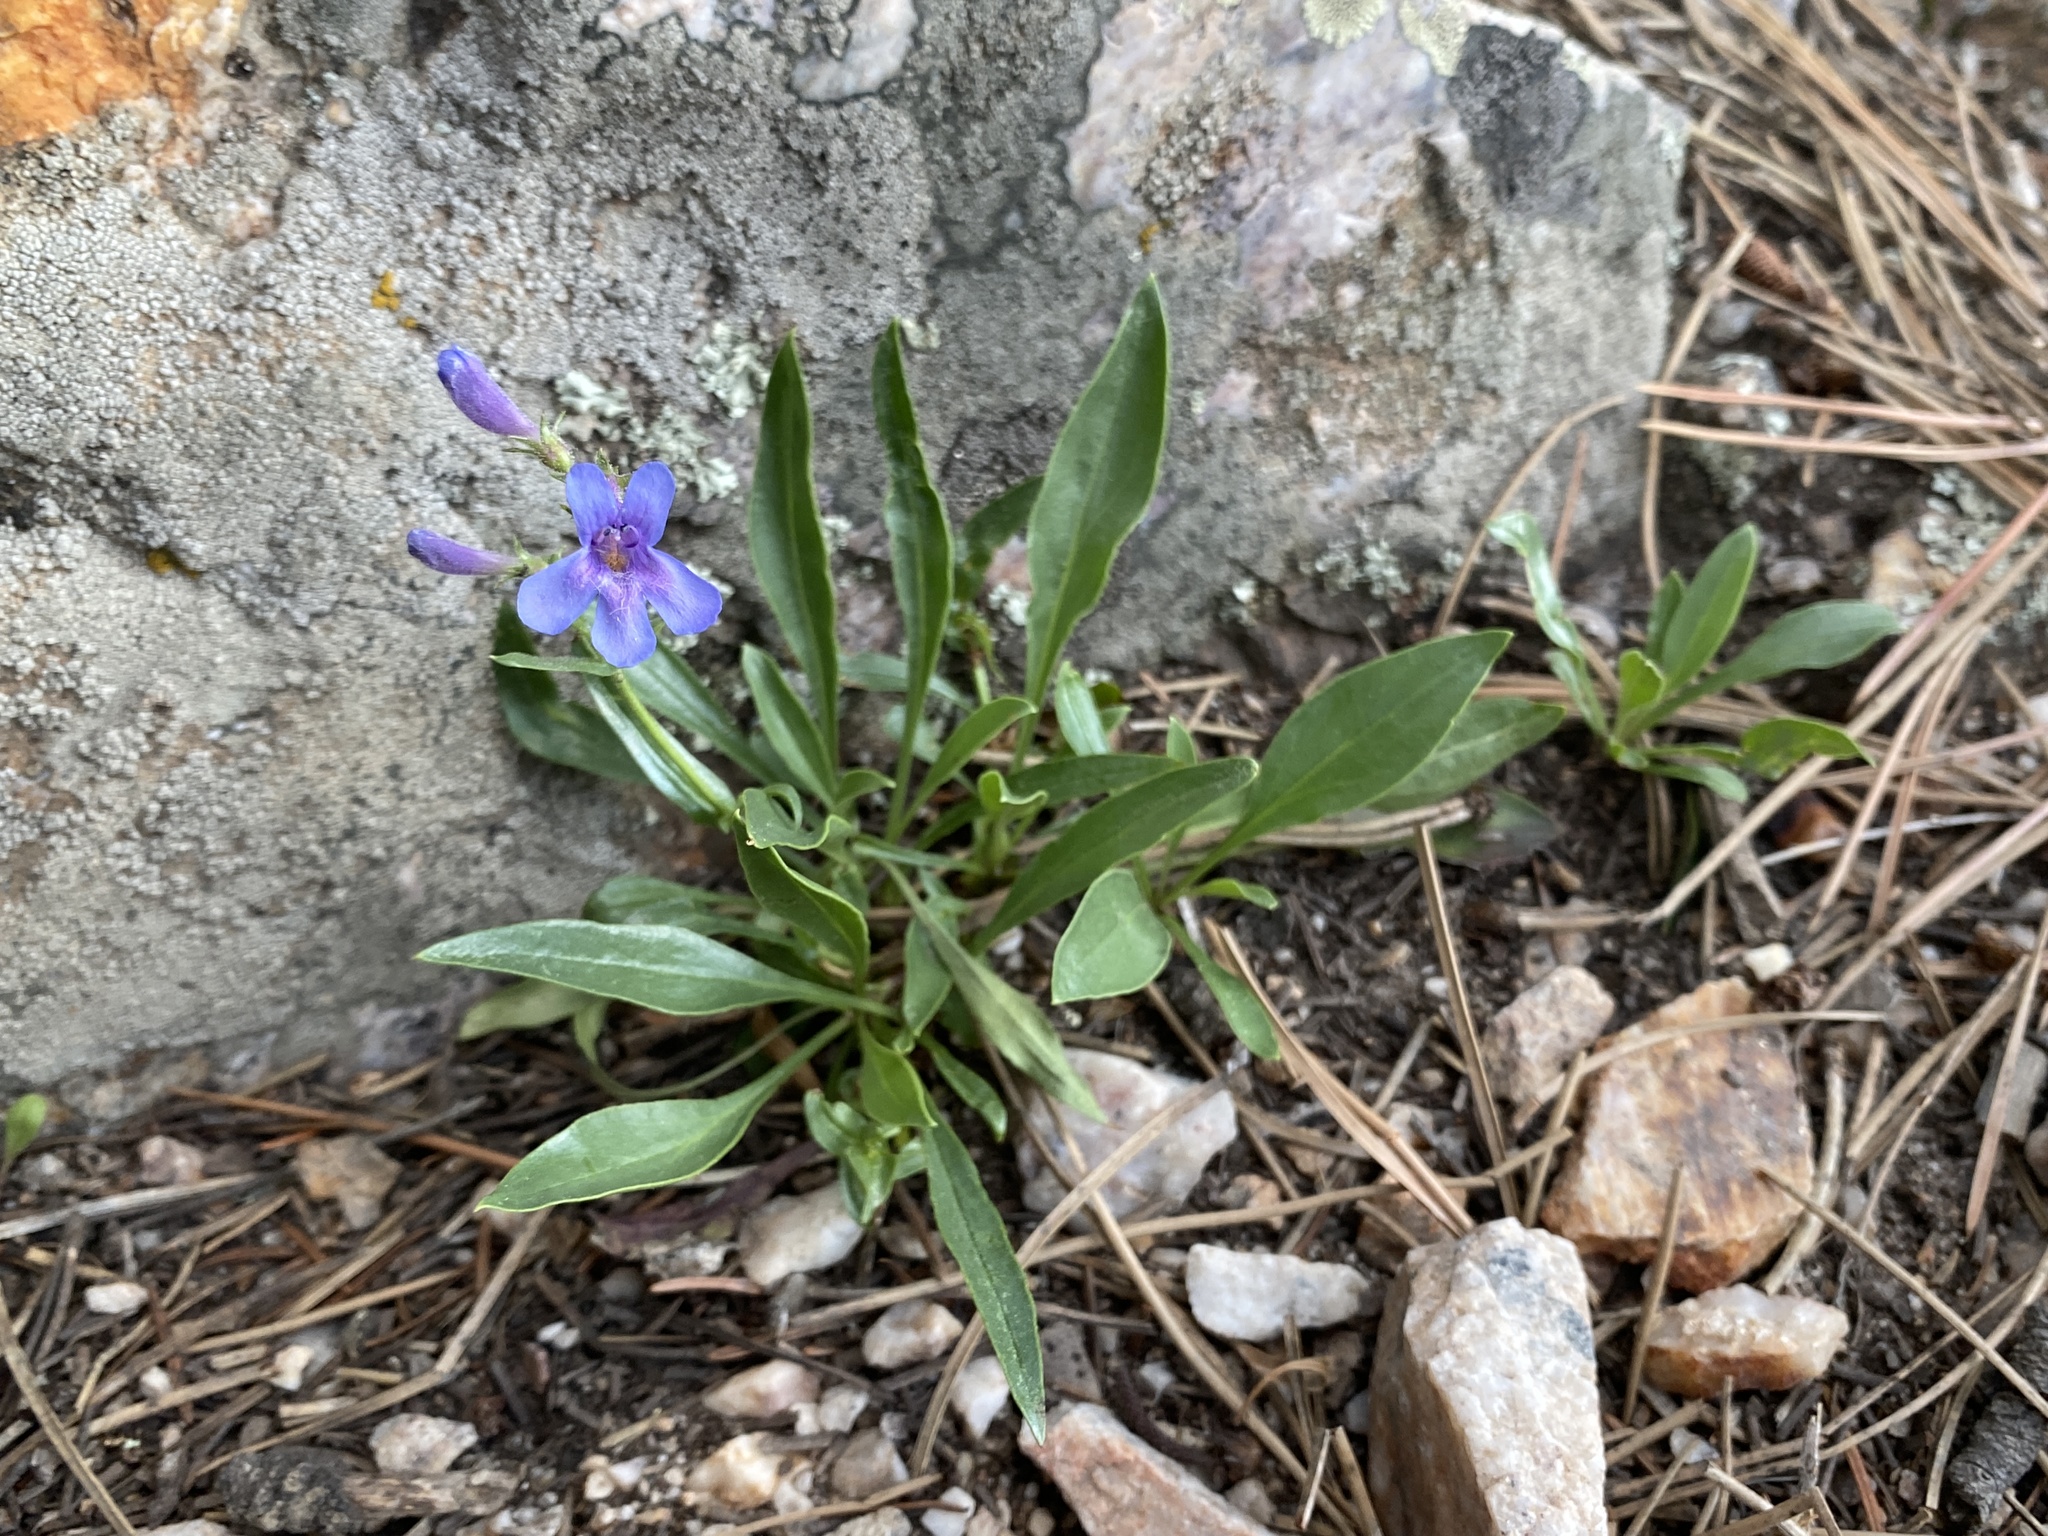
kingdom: Plantae
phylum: Tracheophyta
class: Magnoliopsida
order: Lamiales
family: Plantaginaceae
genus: Penstemon
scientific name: Penstemon virens
